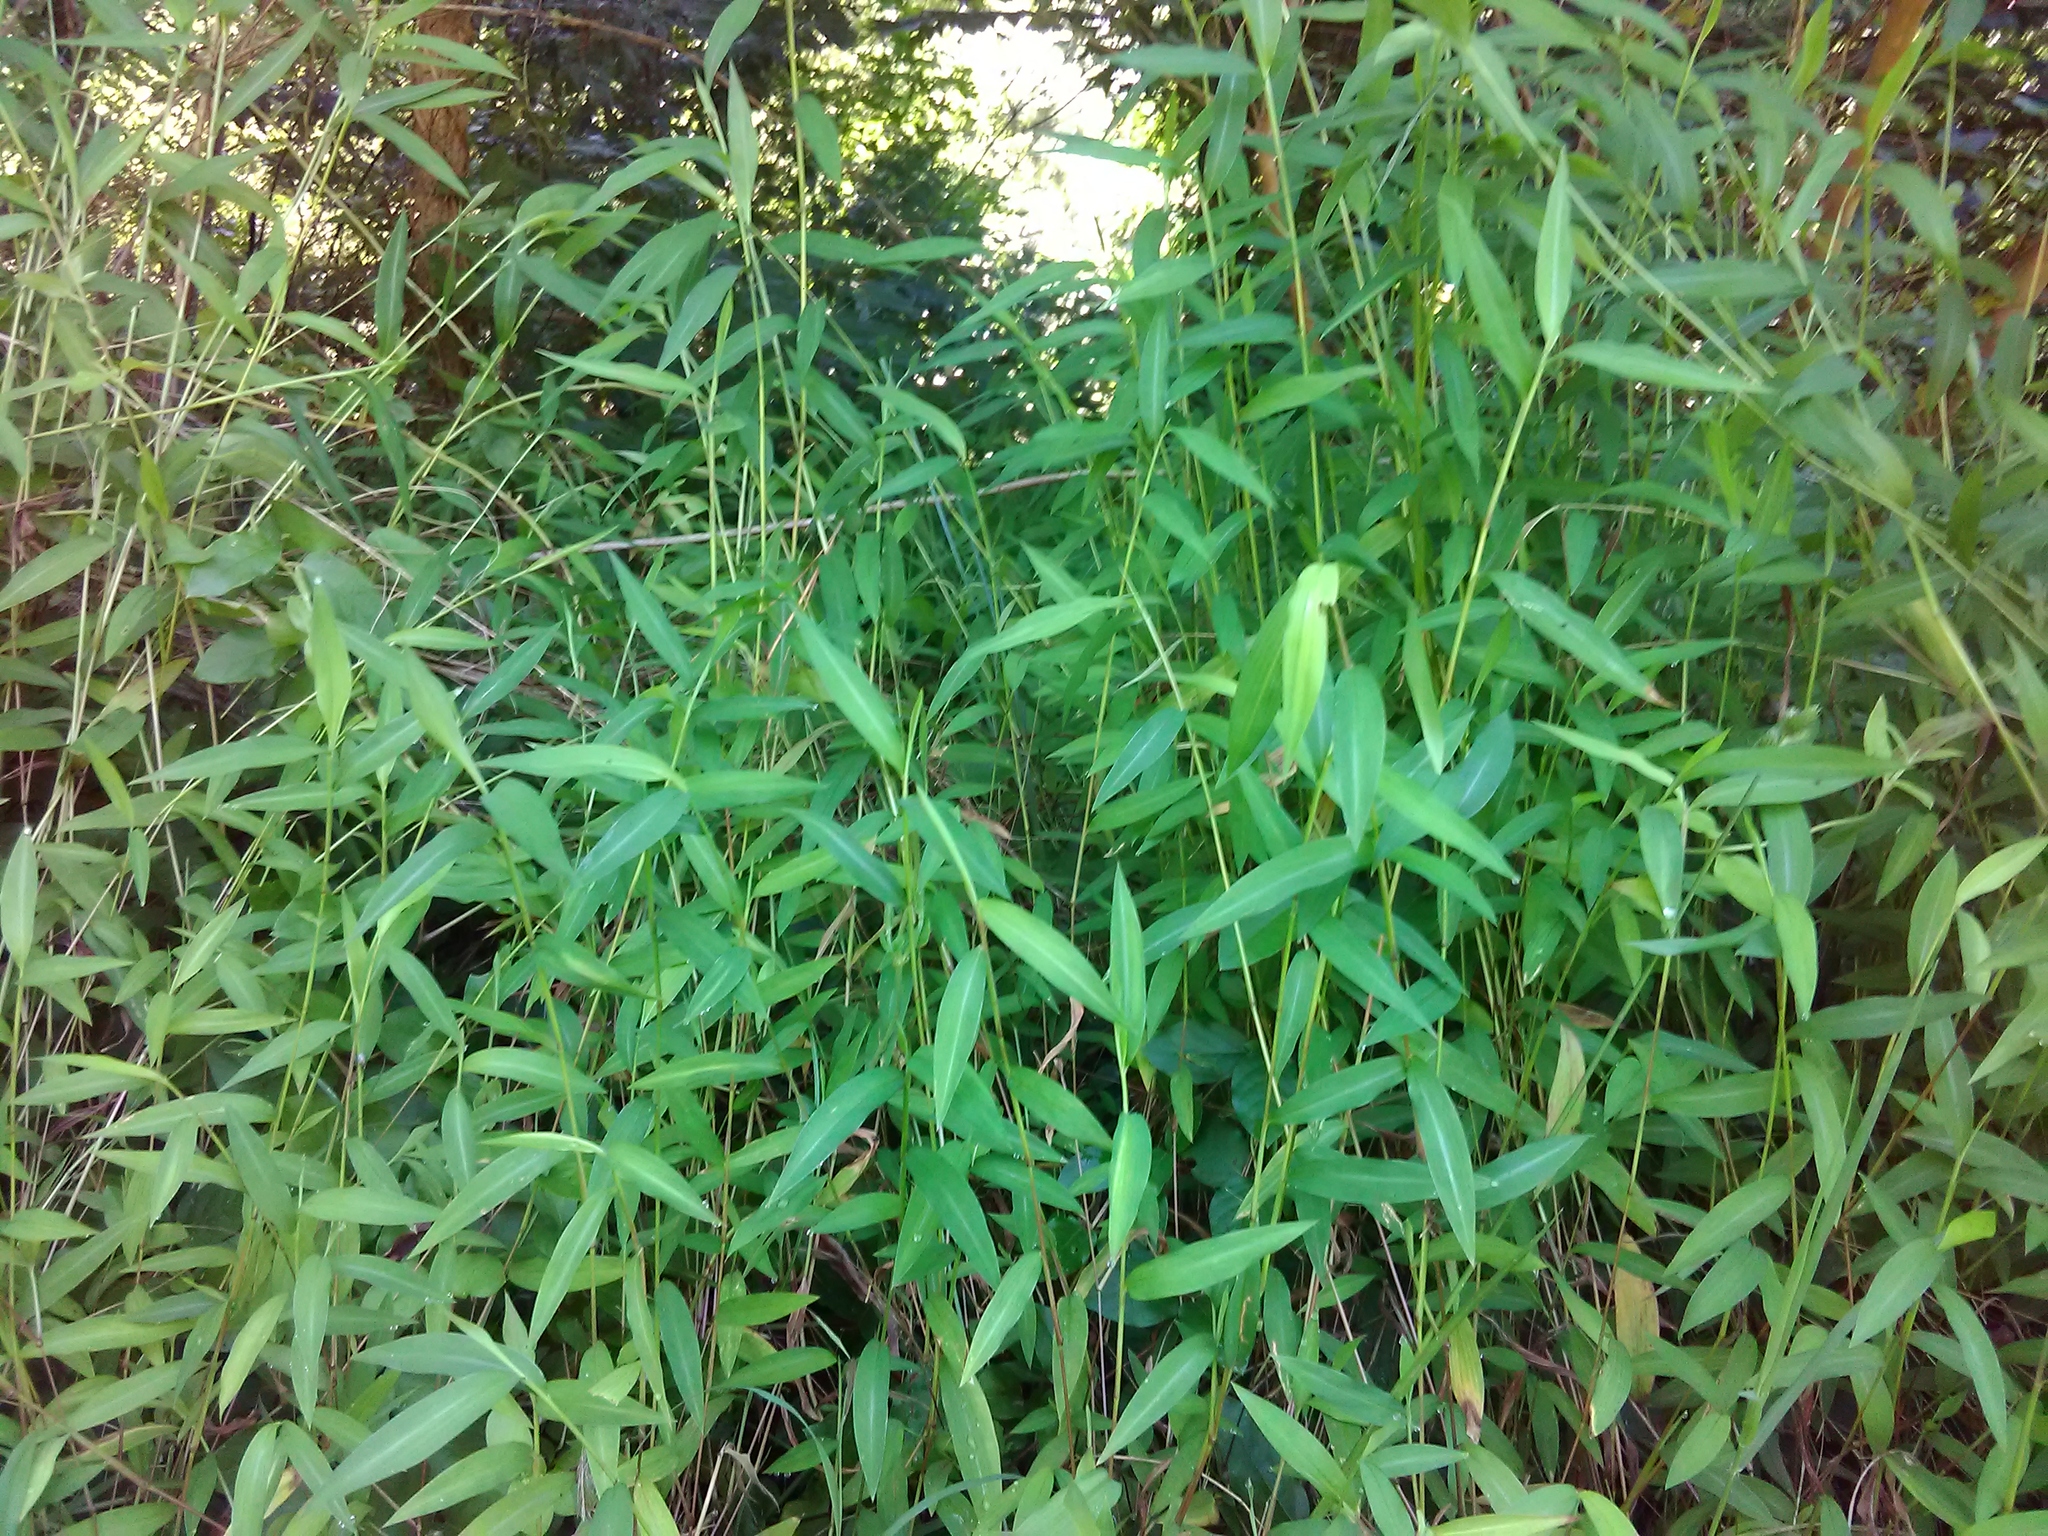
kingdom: Plantae
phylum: Tracheophyta
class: Liliopsida
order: Poales
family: Poaceae
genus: Microstegium
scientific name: Microstegium vimineum
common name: Japanese stiltgrass
